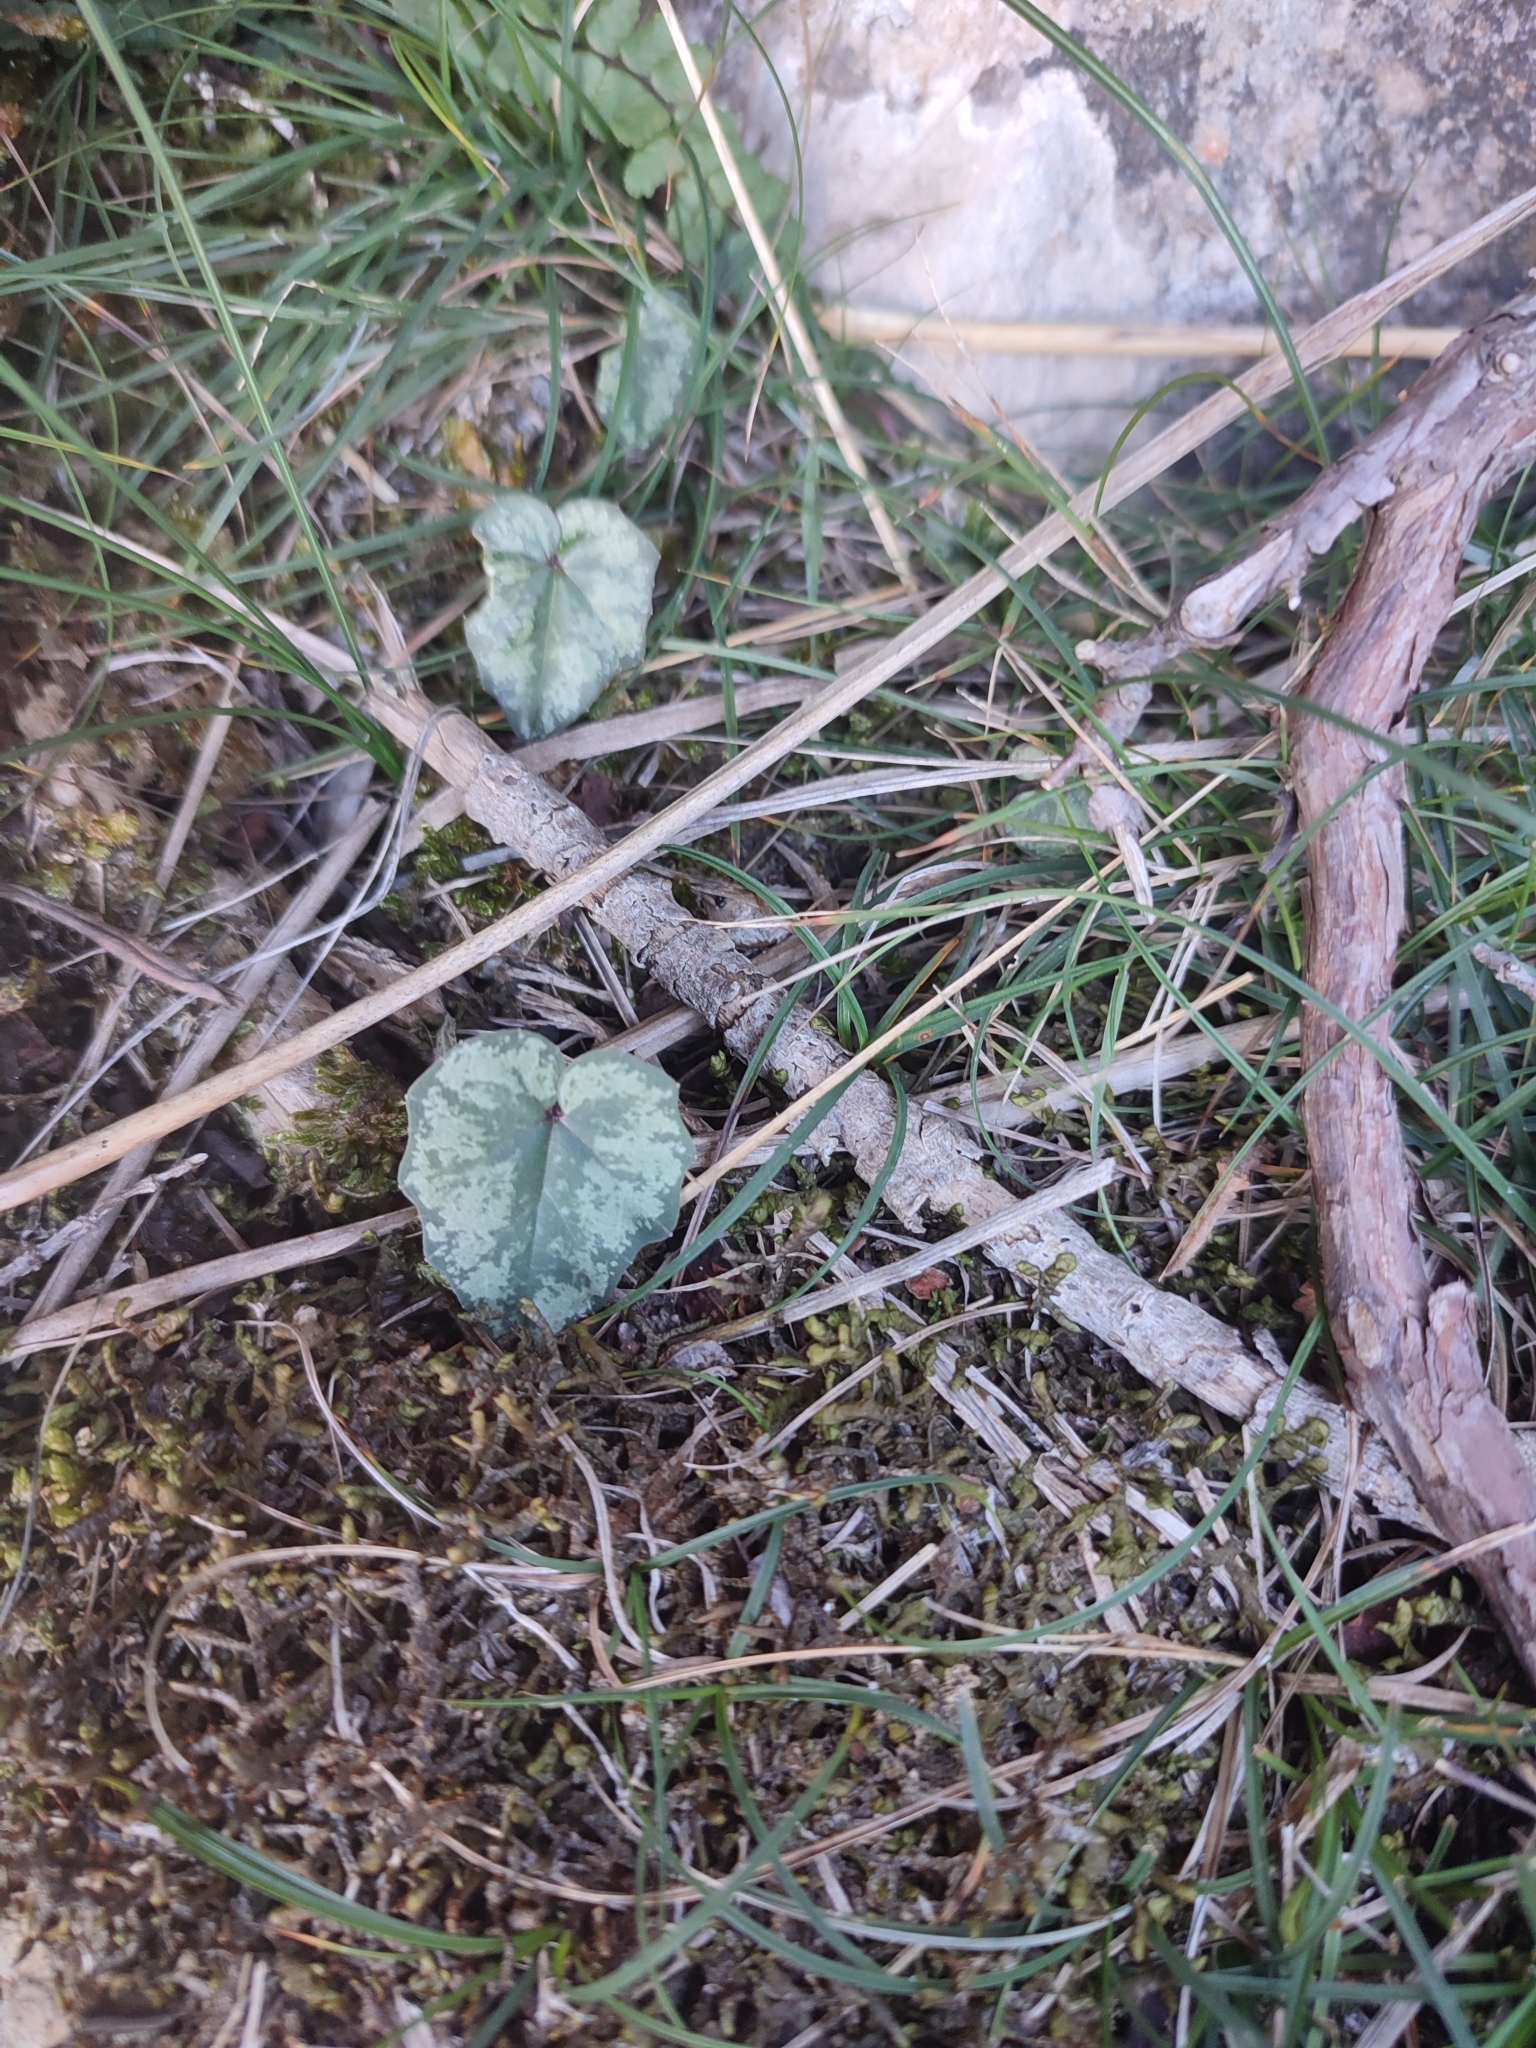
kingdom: Plantae
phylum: Tracheophyta
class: Magnoliopsida
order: Ericales
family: Primulaceae
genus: Cyclamen
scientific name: Cyclamen balearicum
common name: Majorca cyclamen
